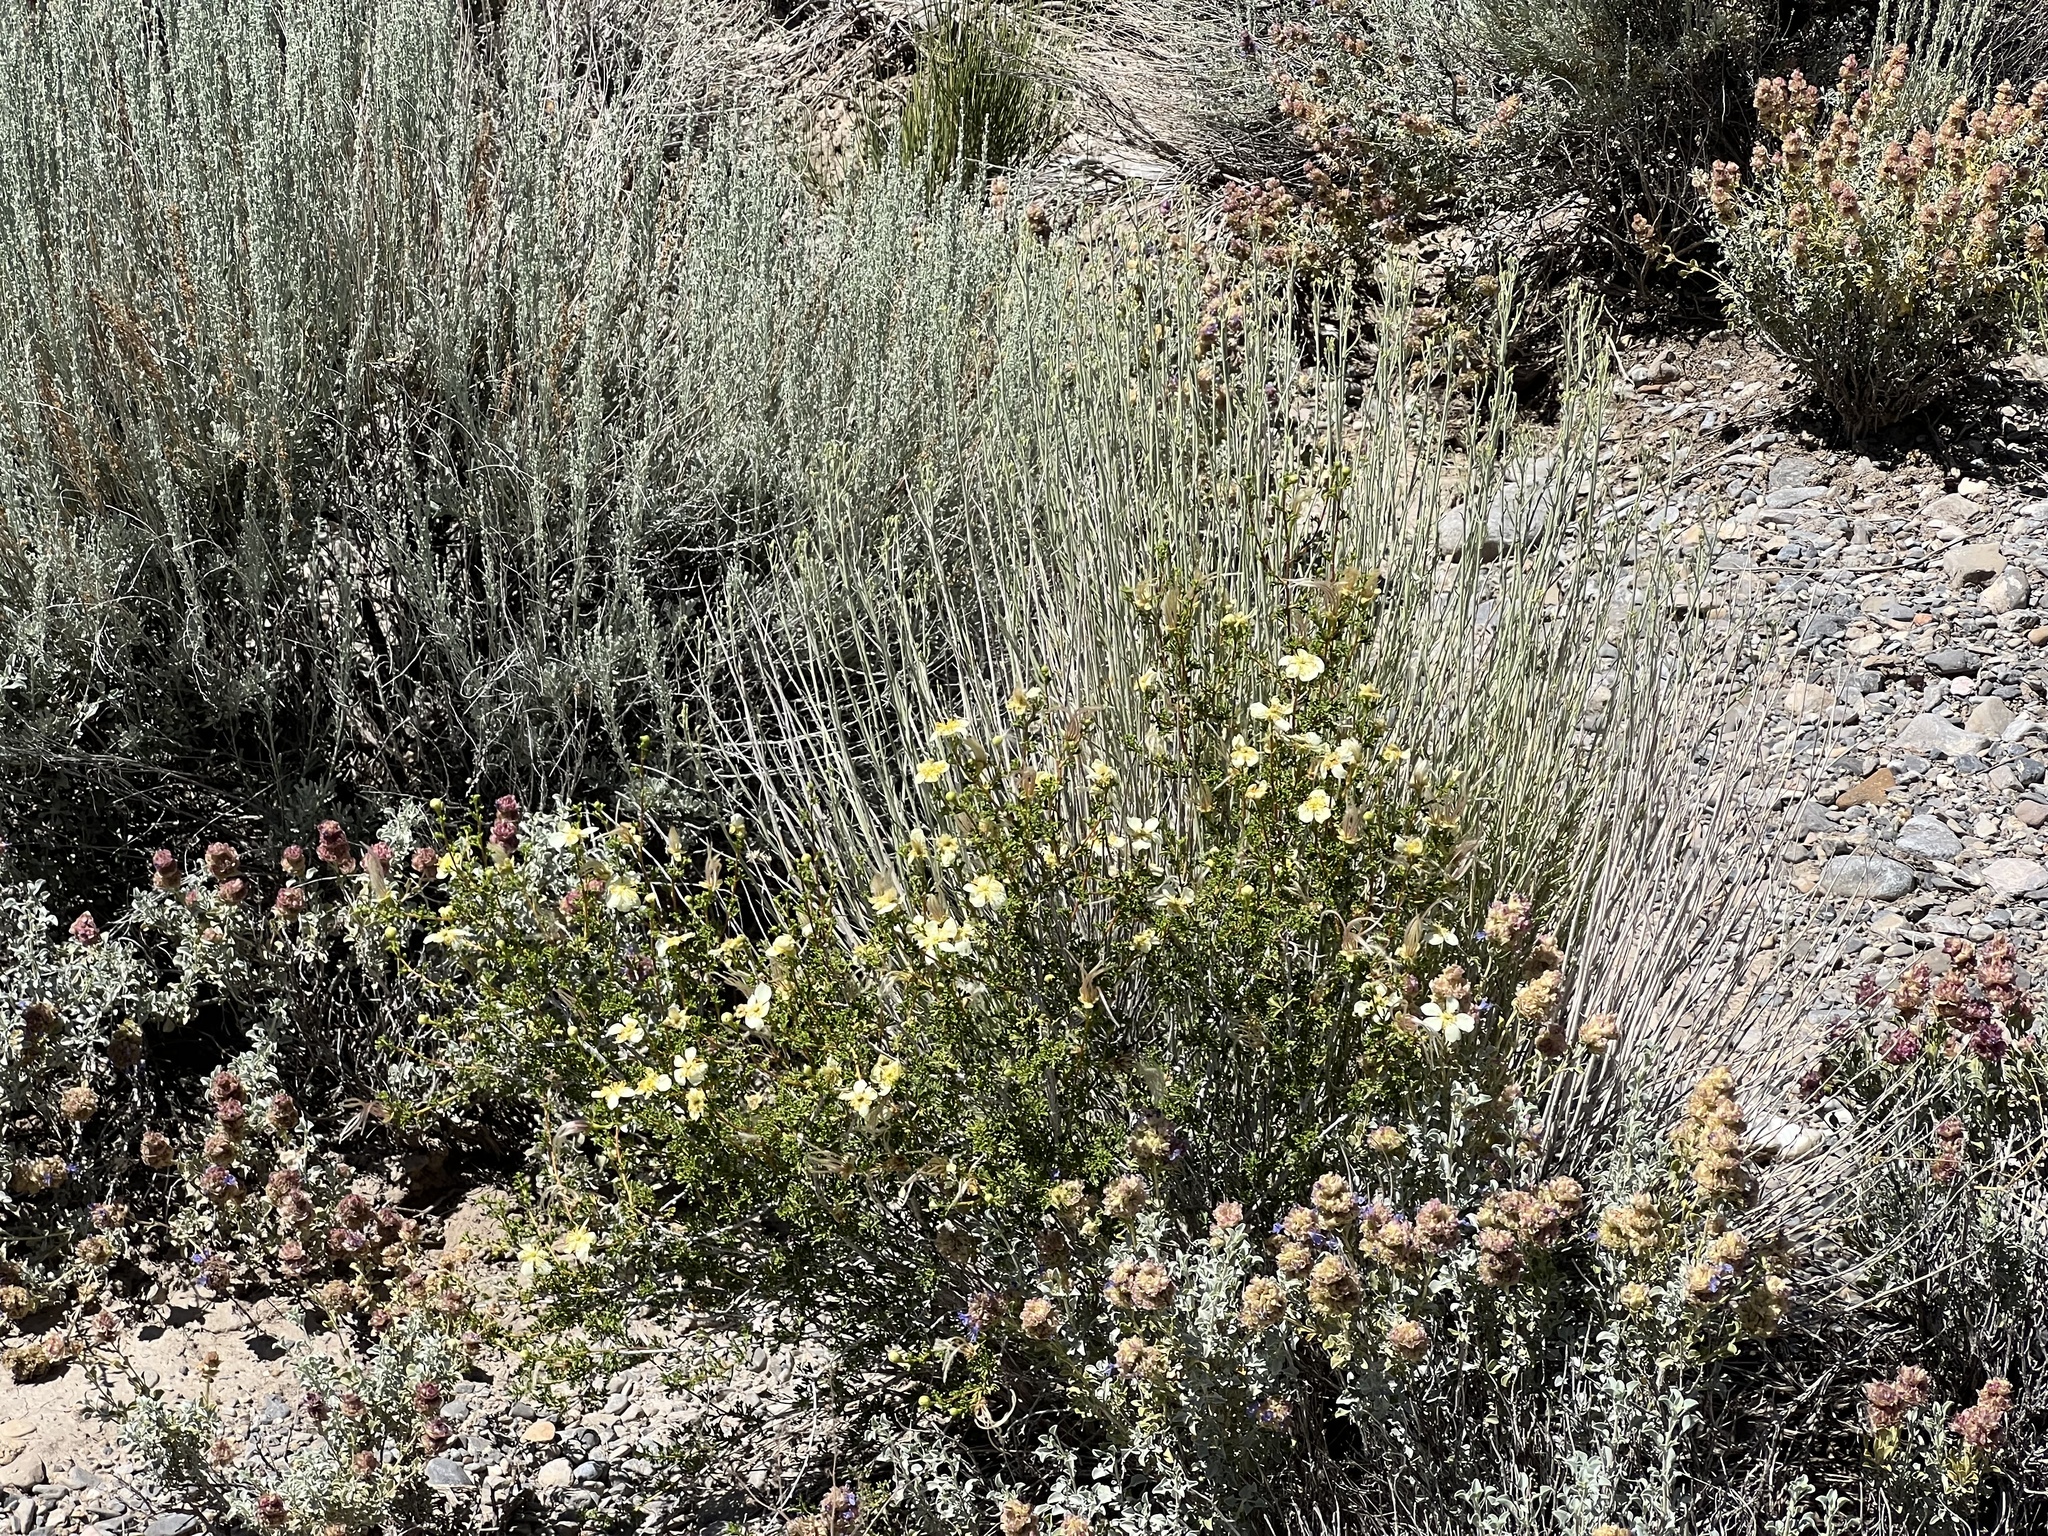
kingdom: Plantae
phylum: Tracheophyta
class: Magnoliopsida
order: Rosales
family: Rosaceae
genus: Purshia
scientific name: Purshia stansburiana
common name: Stansbury's cliffrose
